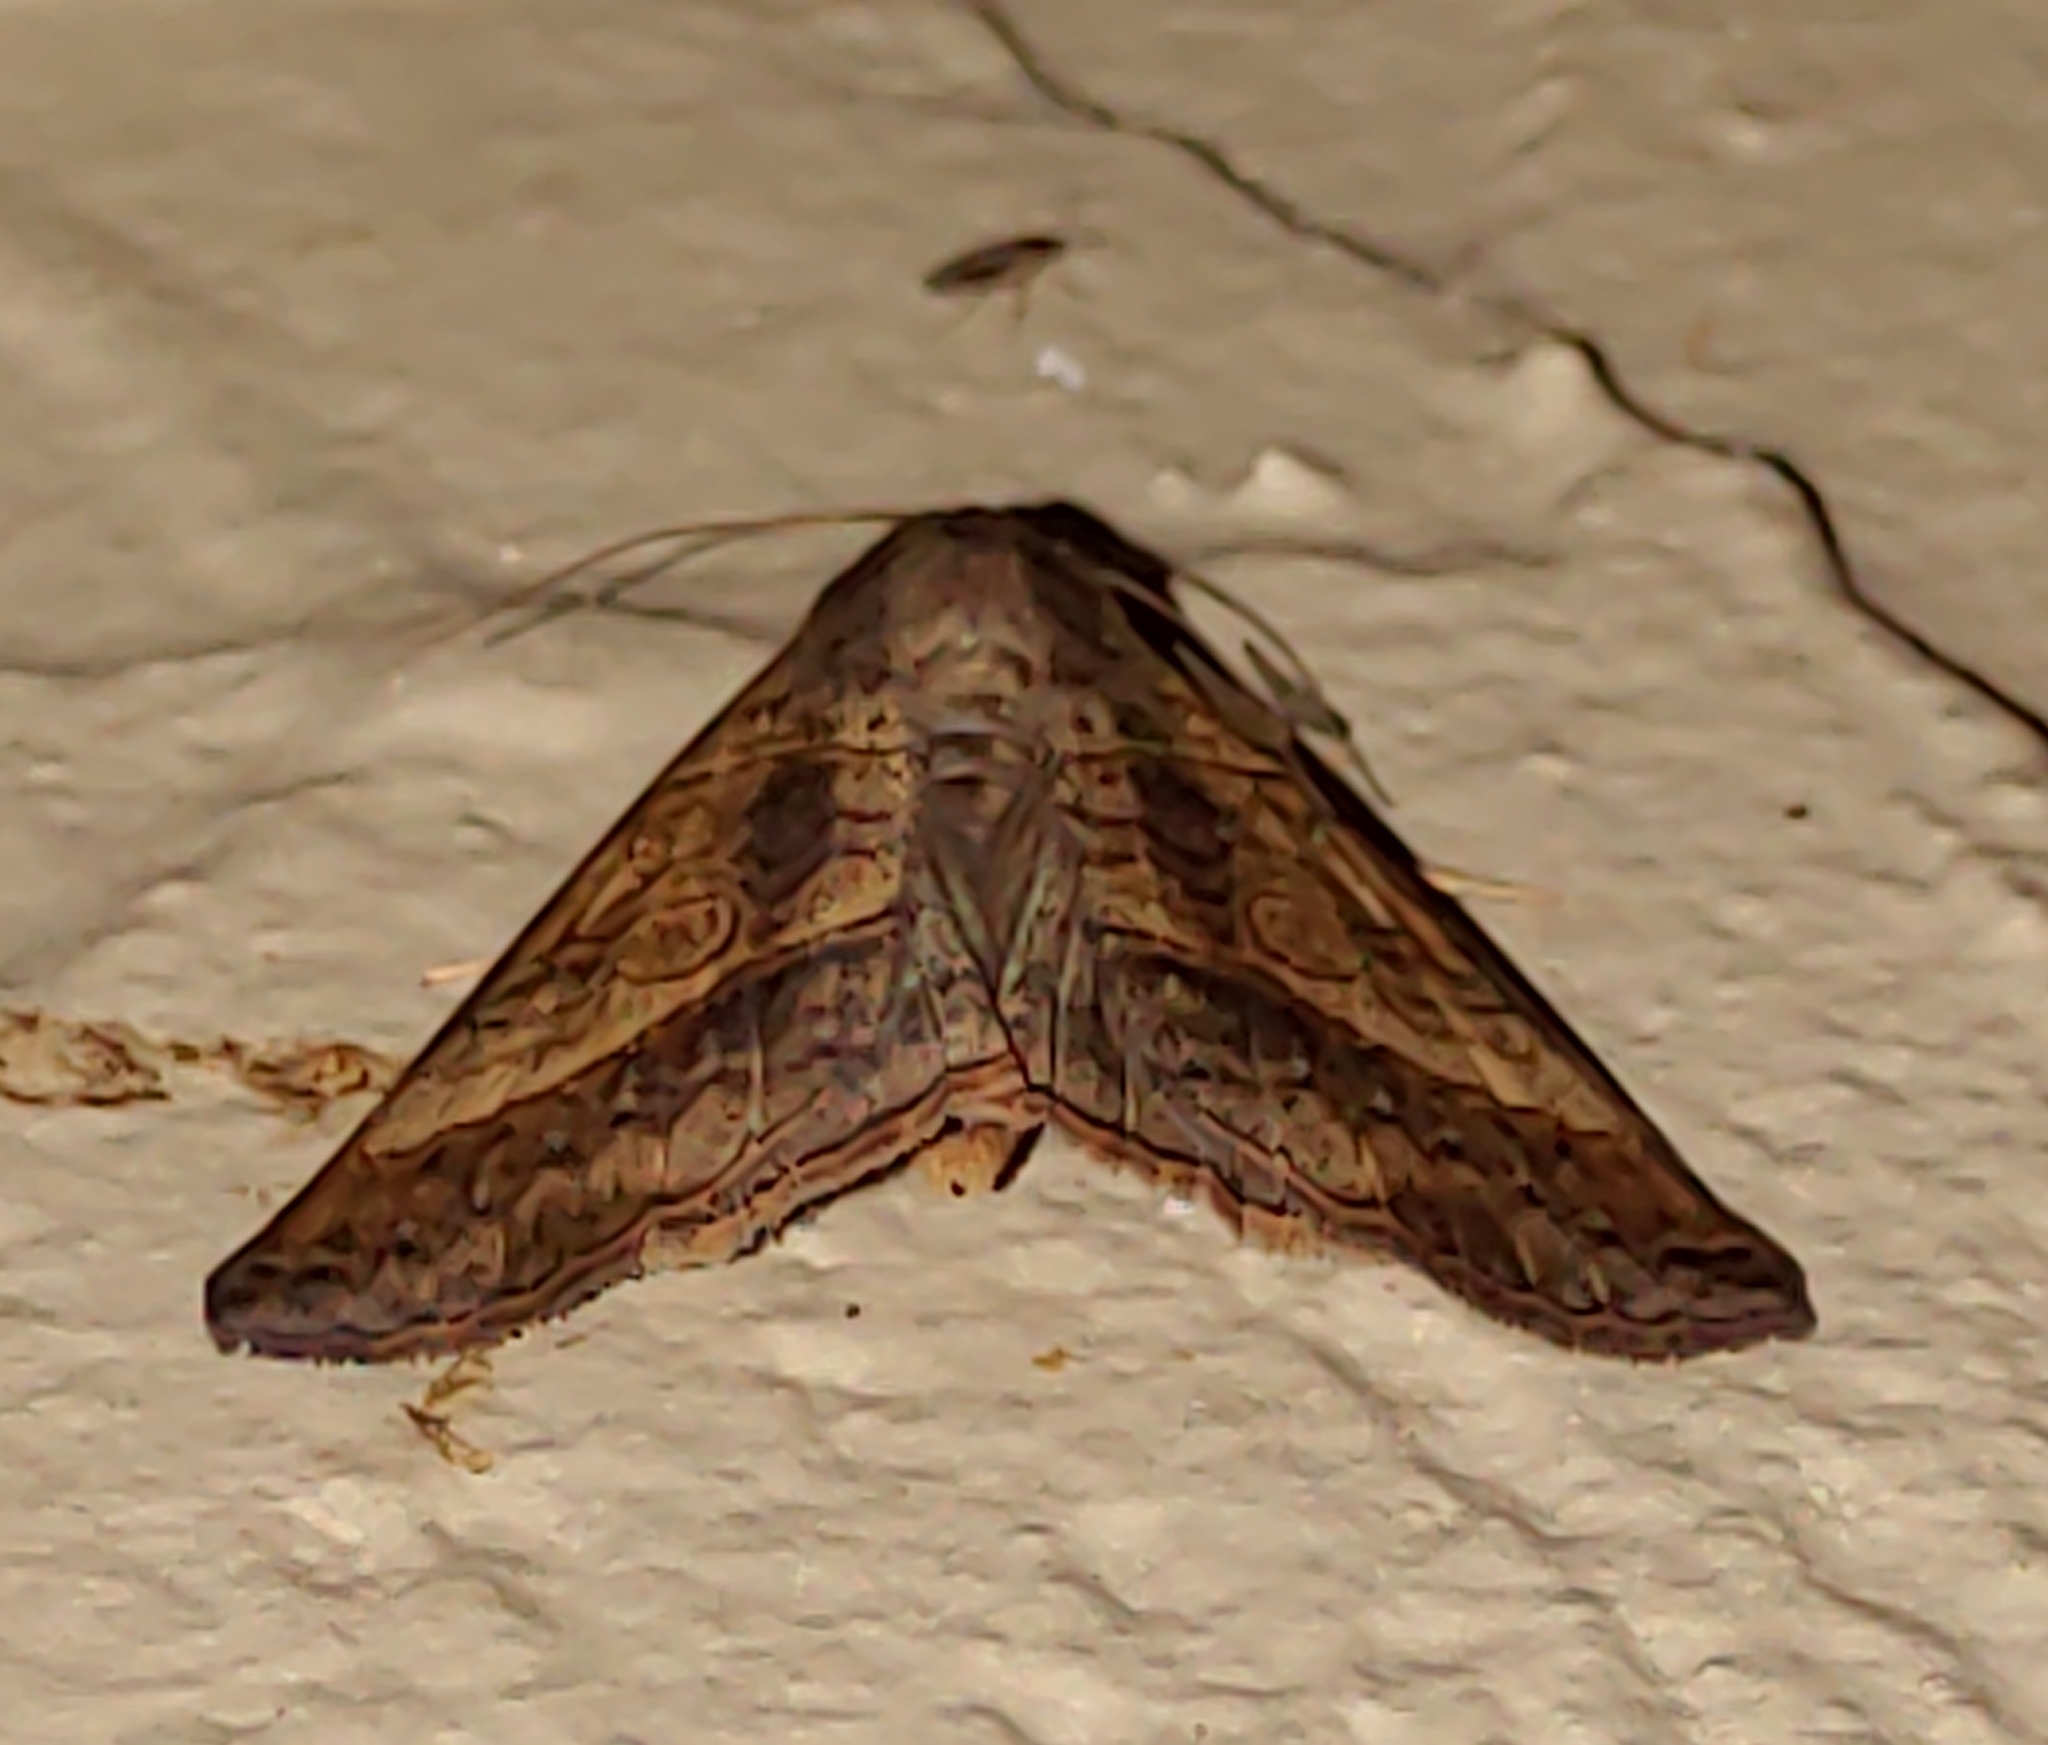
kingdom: Animalia
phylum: Arthropoda
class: Insecta
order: Lepidoptera
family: Erebidae
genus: Mocis
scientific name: Mocis latipes
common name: Striped grass looper
